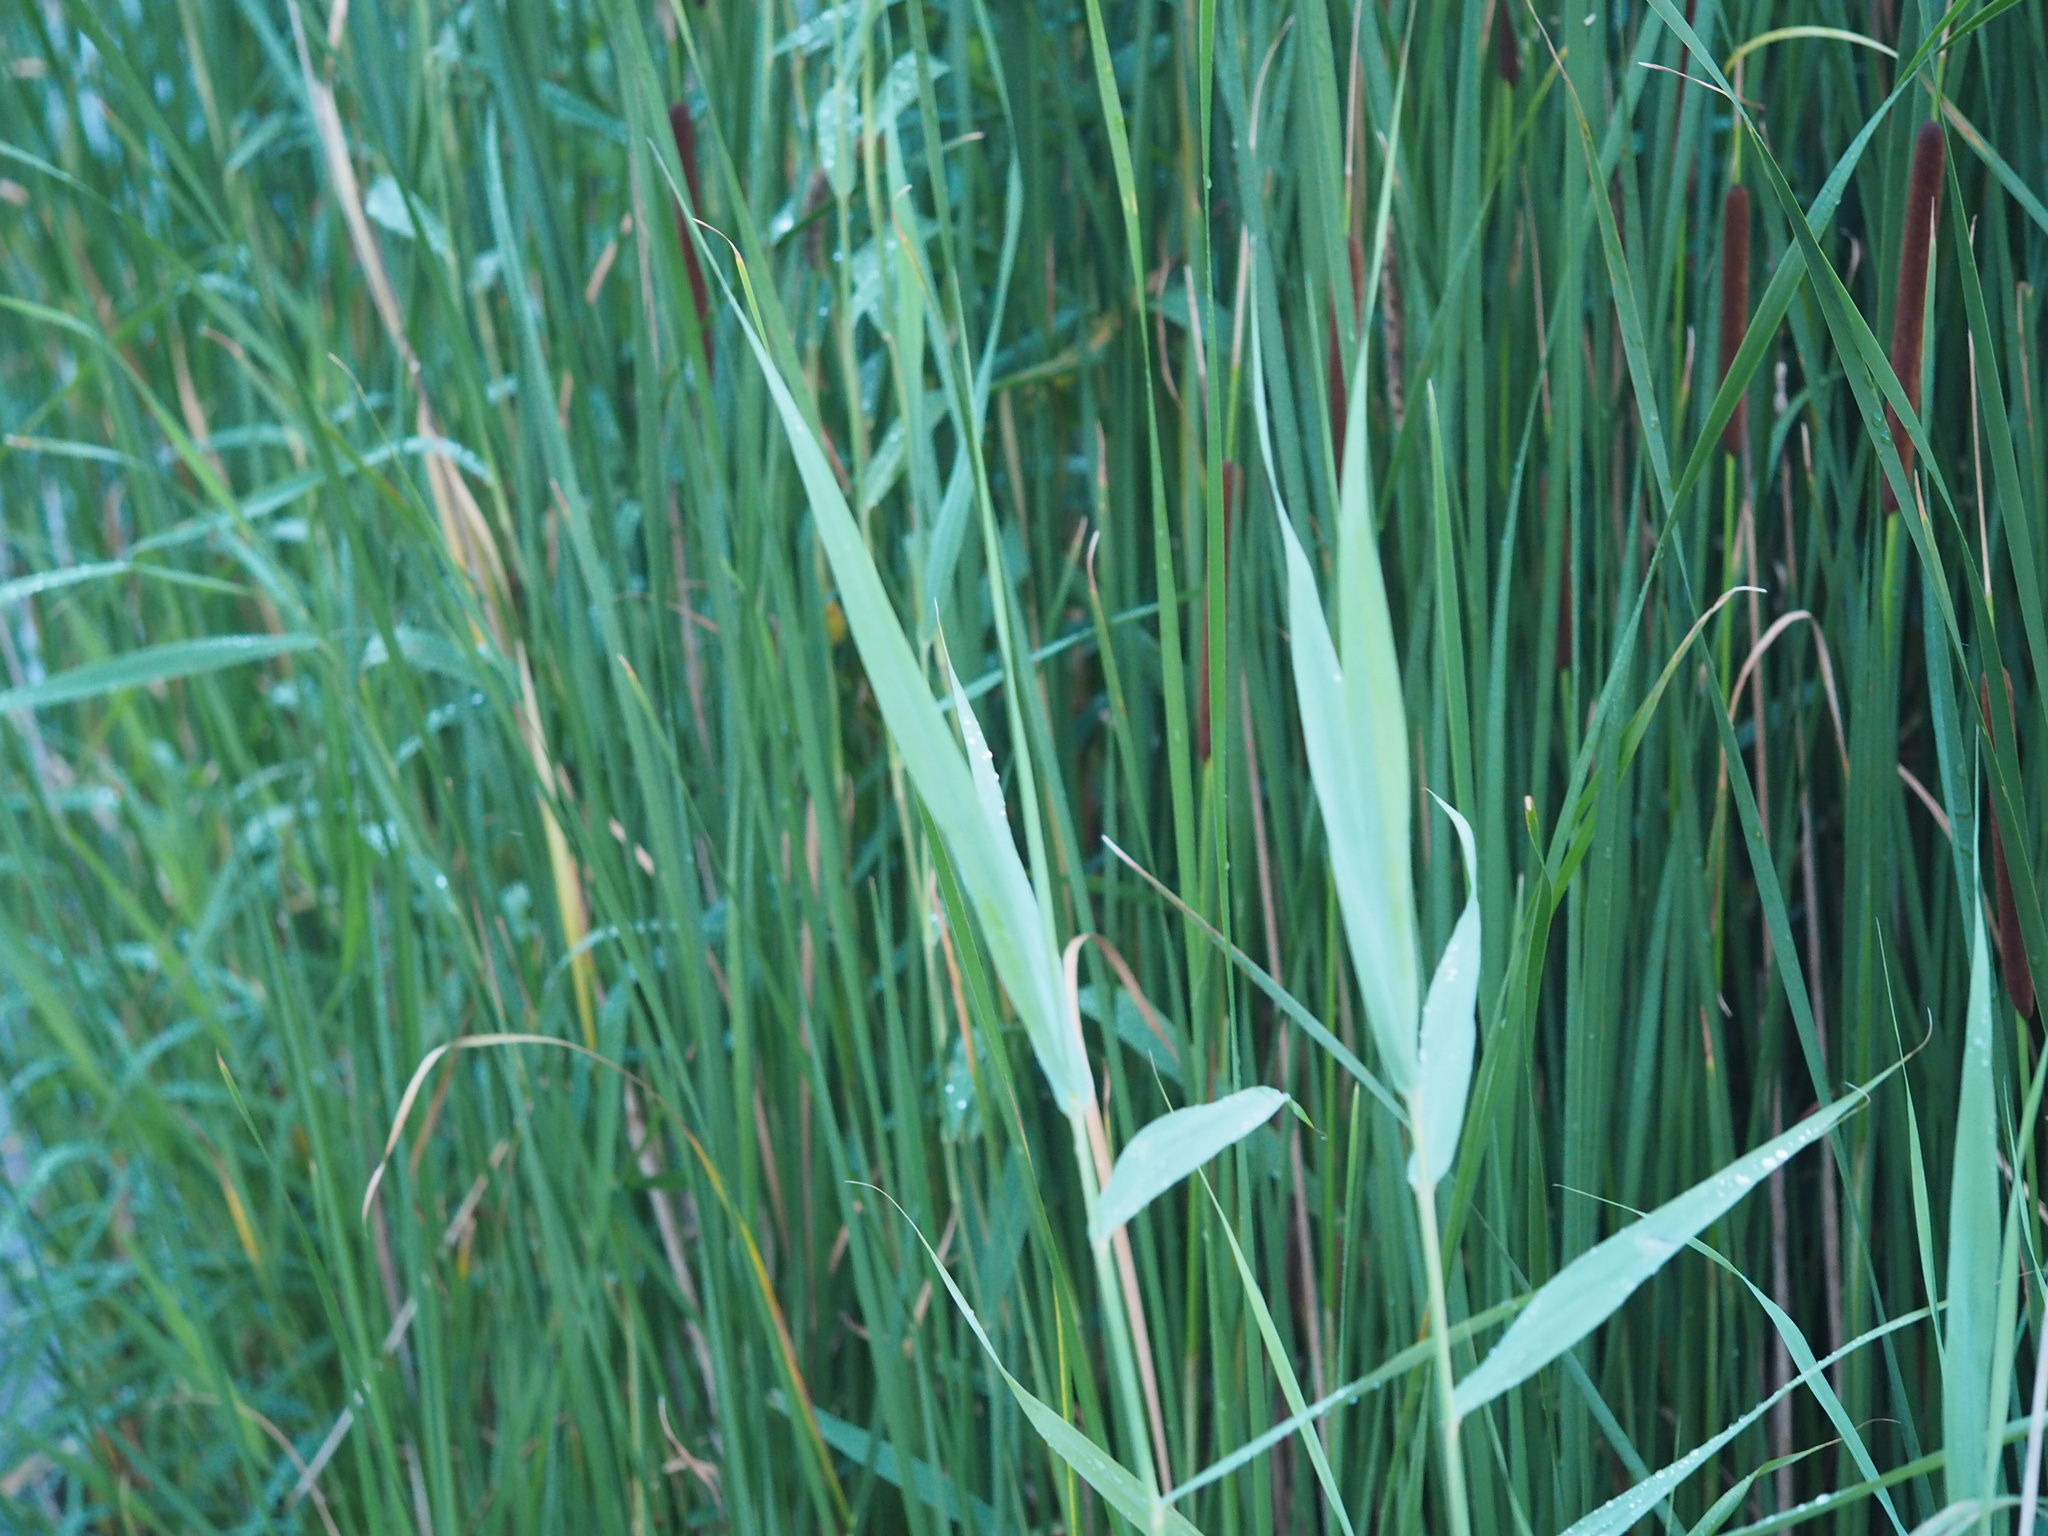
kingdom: Plantae
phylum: Tracheophyta
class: Liliopsida
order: Poales
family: Poaceae
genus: Phragmites
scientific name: Phragmites australis
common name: Common reed
